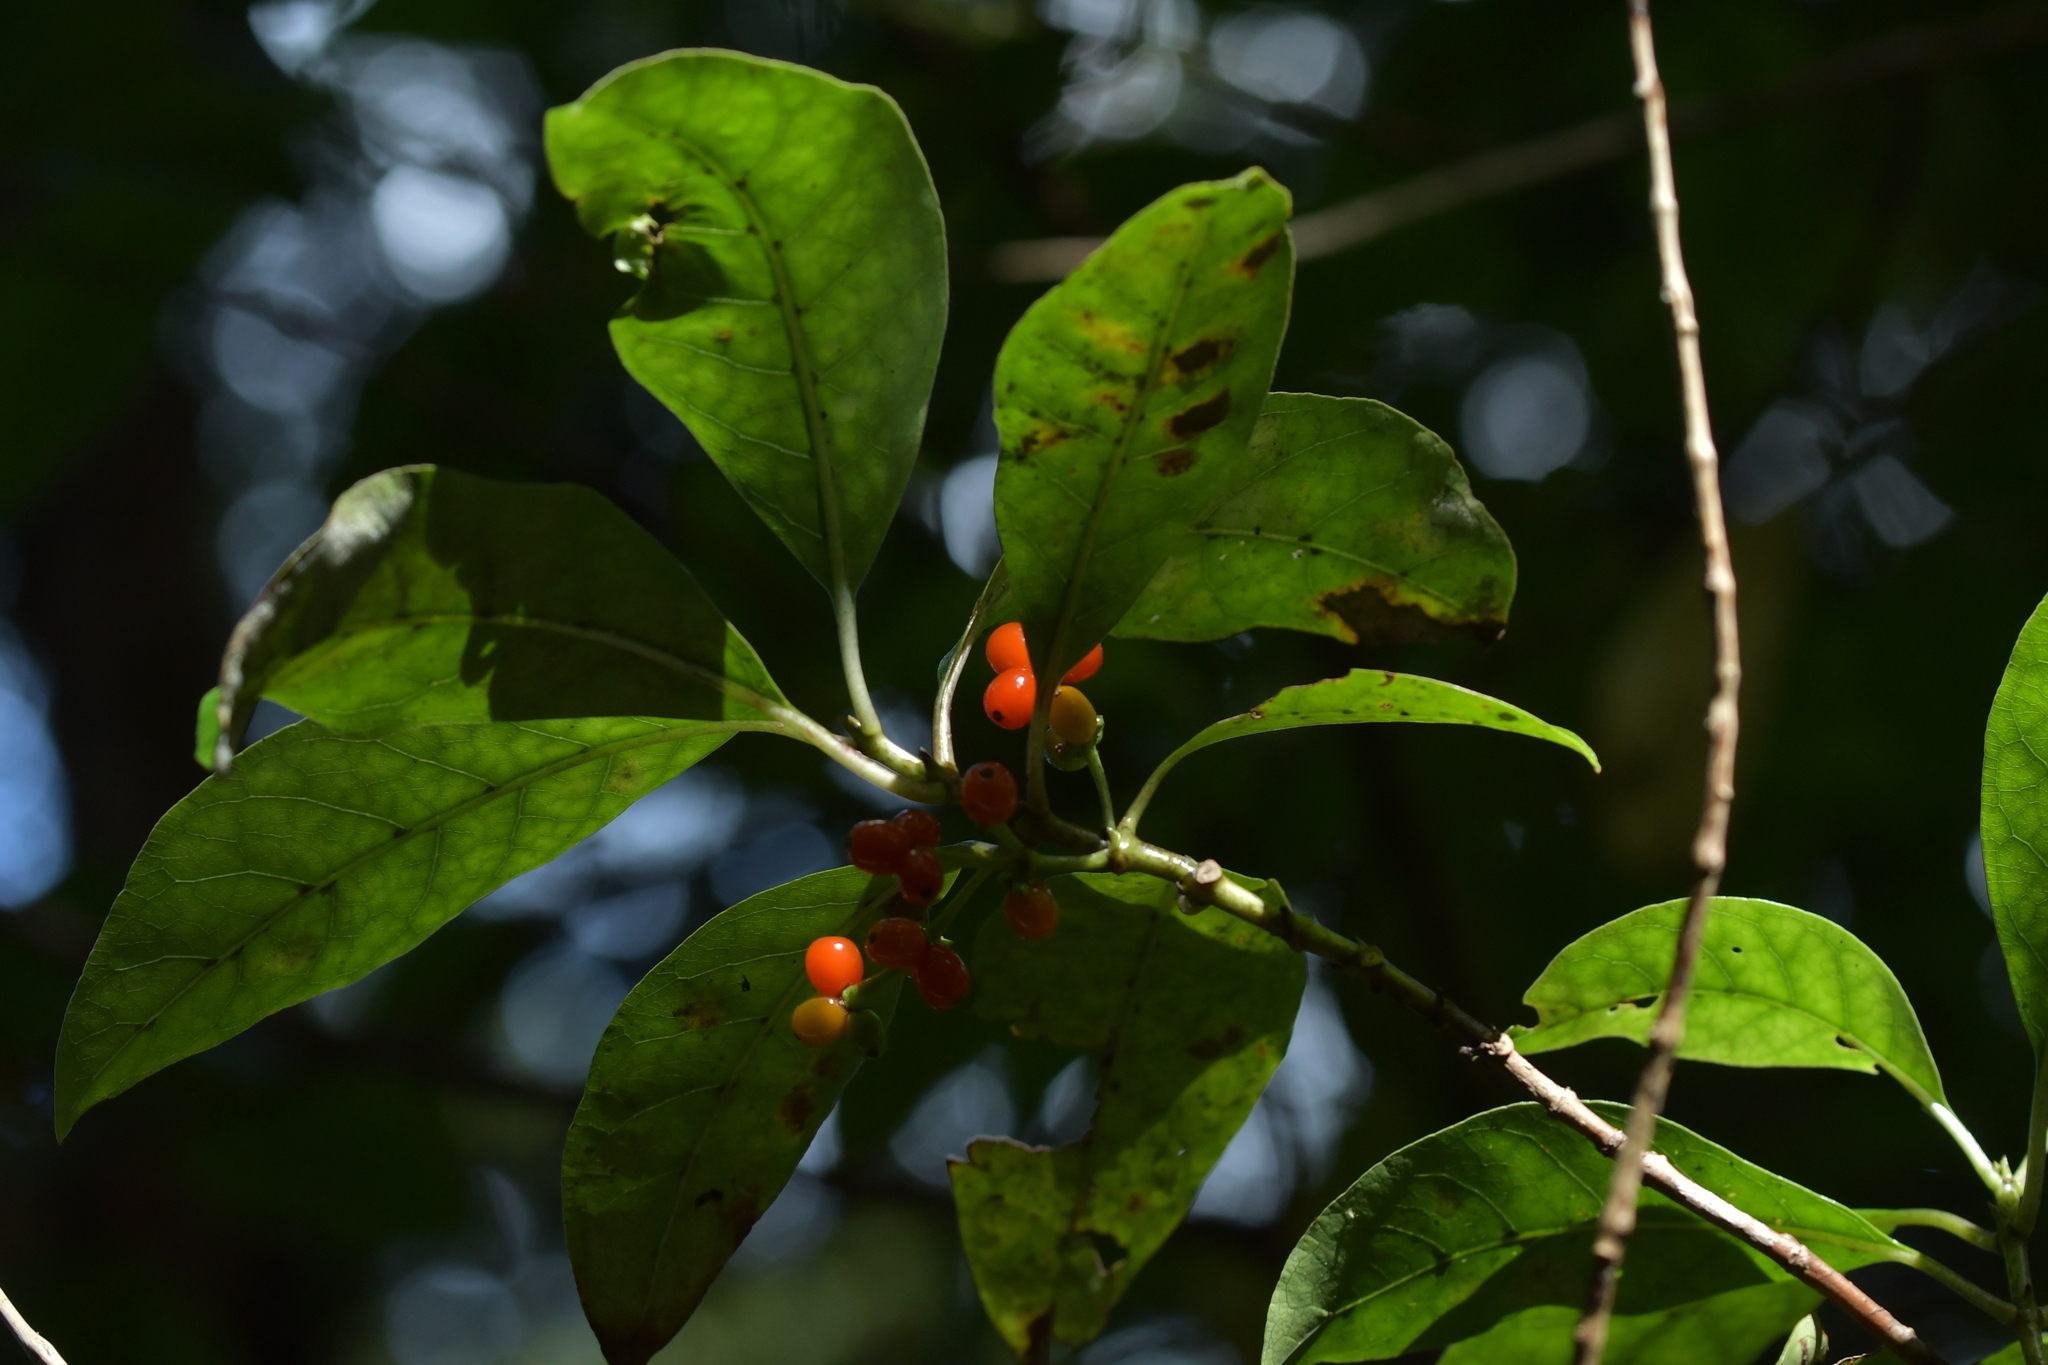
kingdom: Plantae
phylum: Tracheophyta
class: Magnoliopsida
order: Gentianales
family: Rubiaceae
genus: Coprosma
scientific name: Coprosma autumnalis
